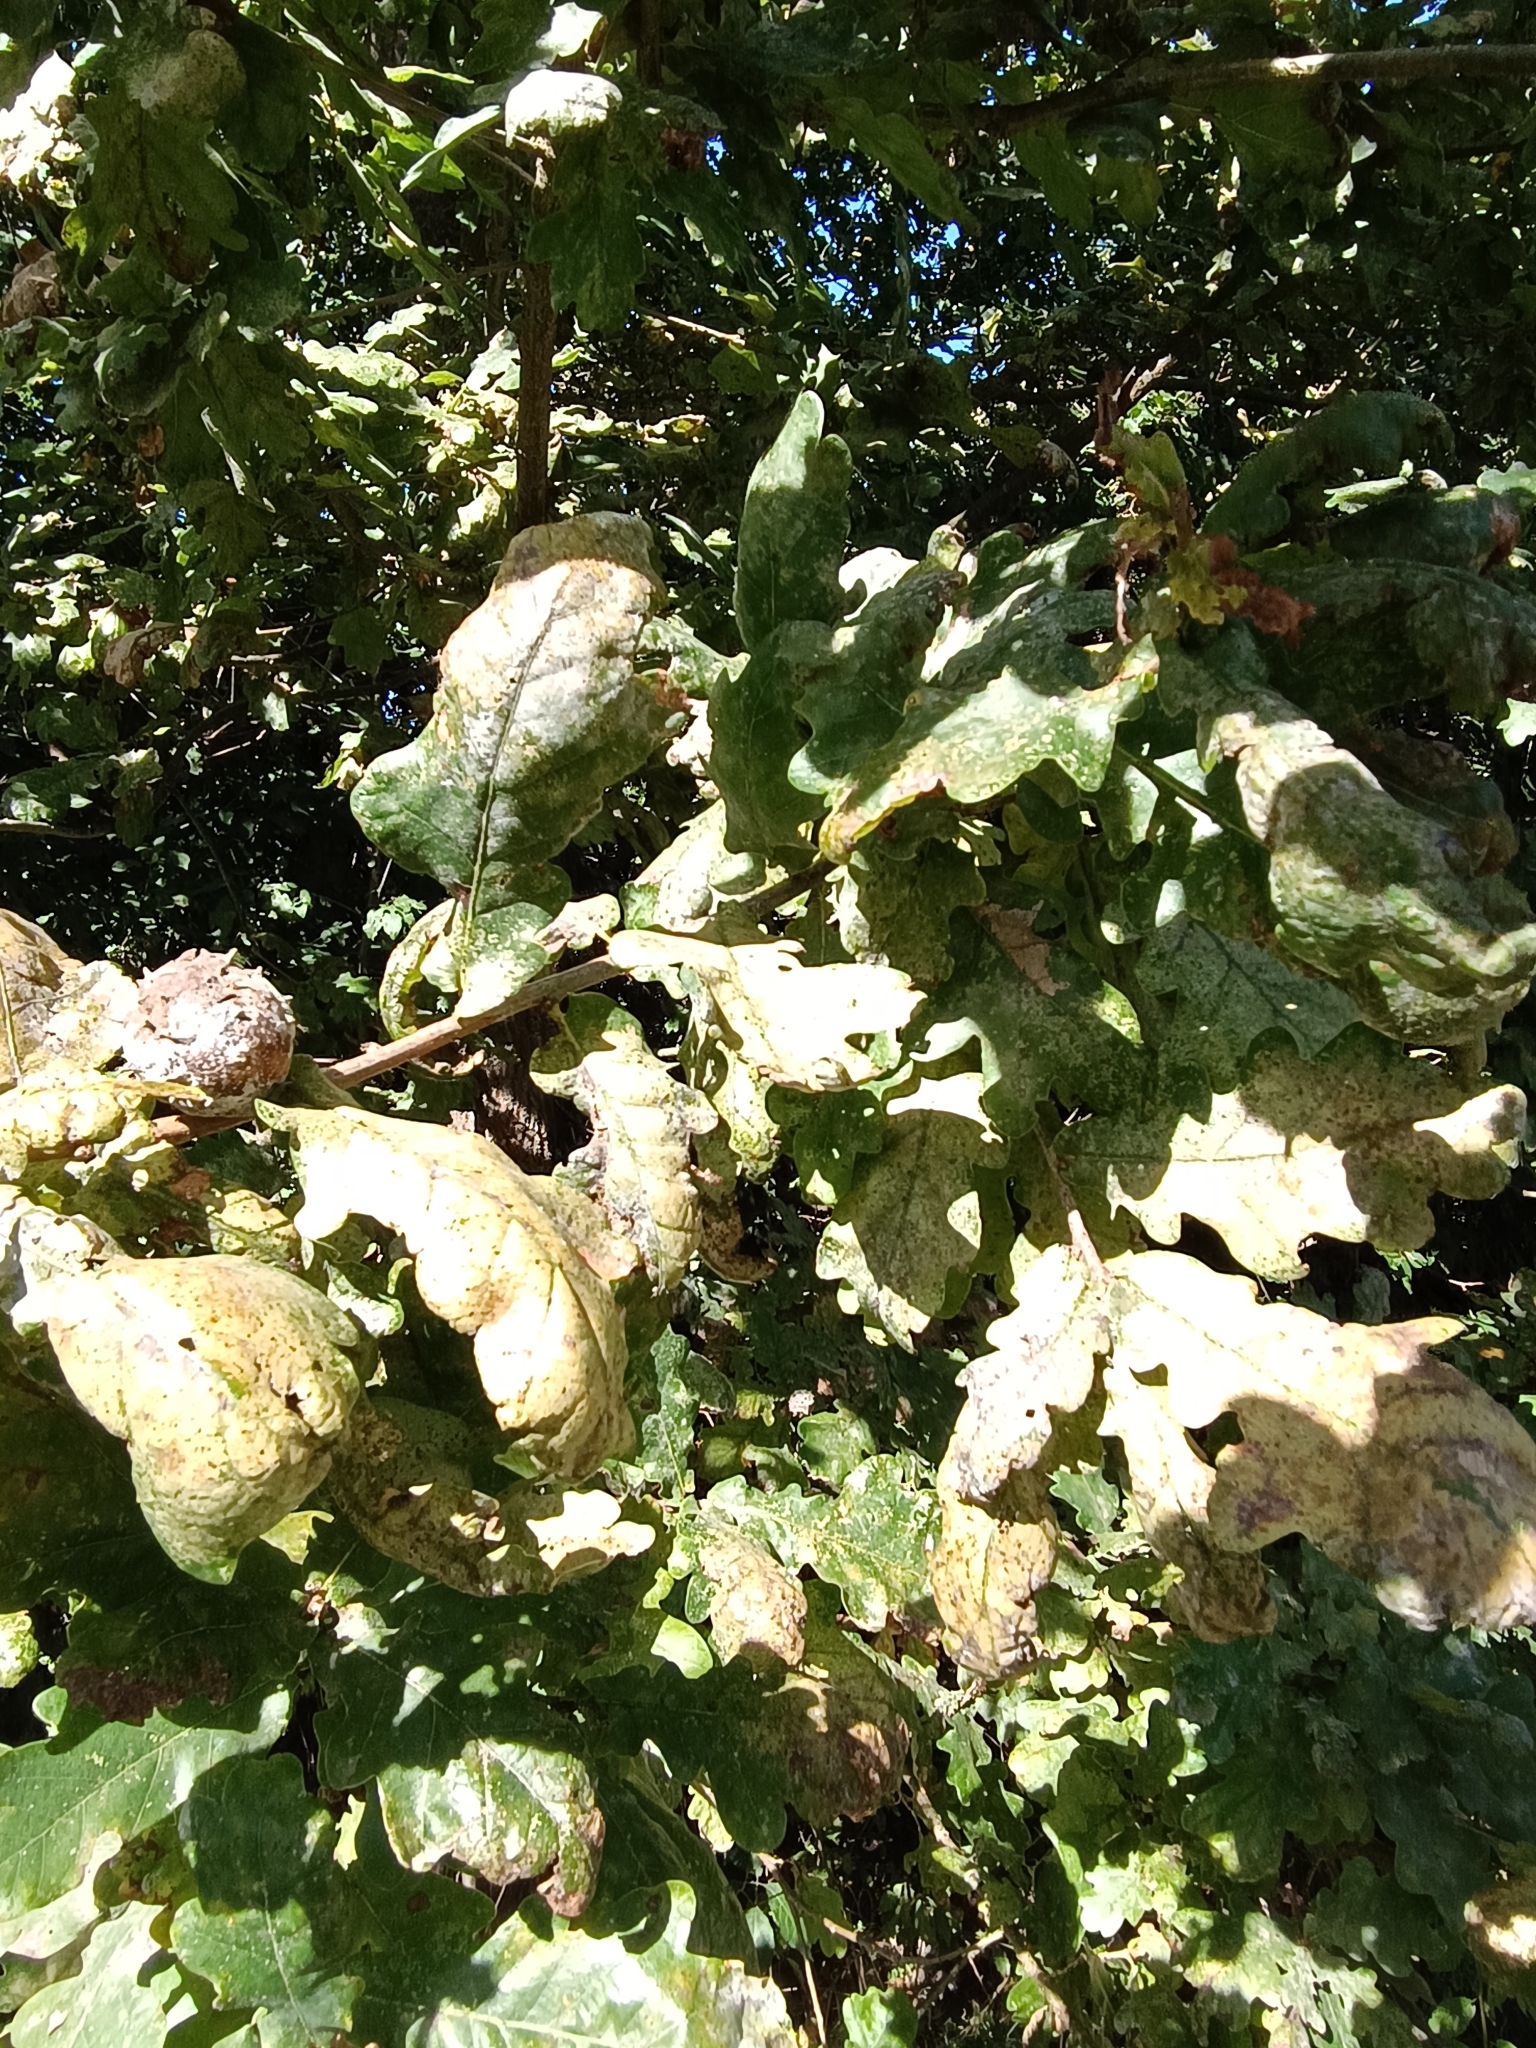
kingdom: Animalia
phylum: Arthropoda
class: Insecta
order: Hymenoptera
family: Cynipidae
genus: Andricus
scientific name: Andricus hungaricus
